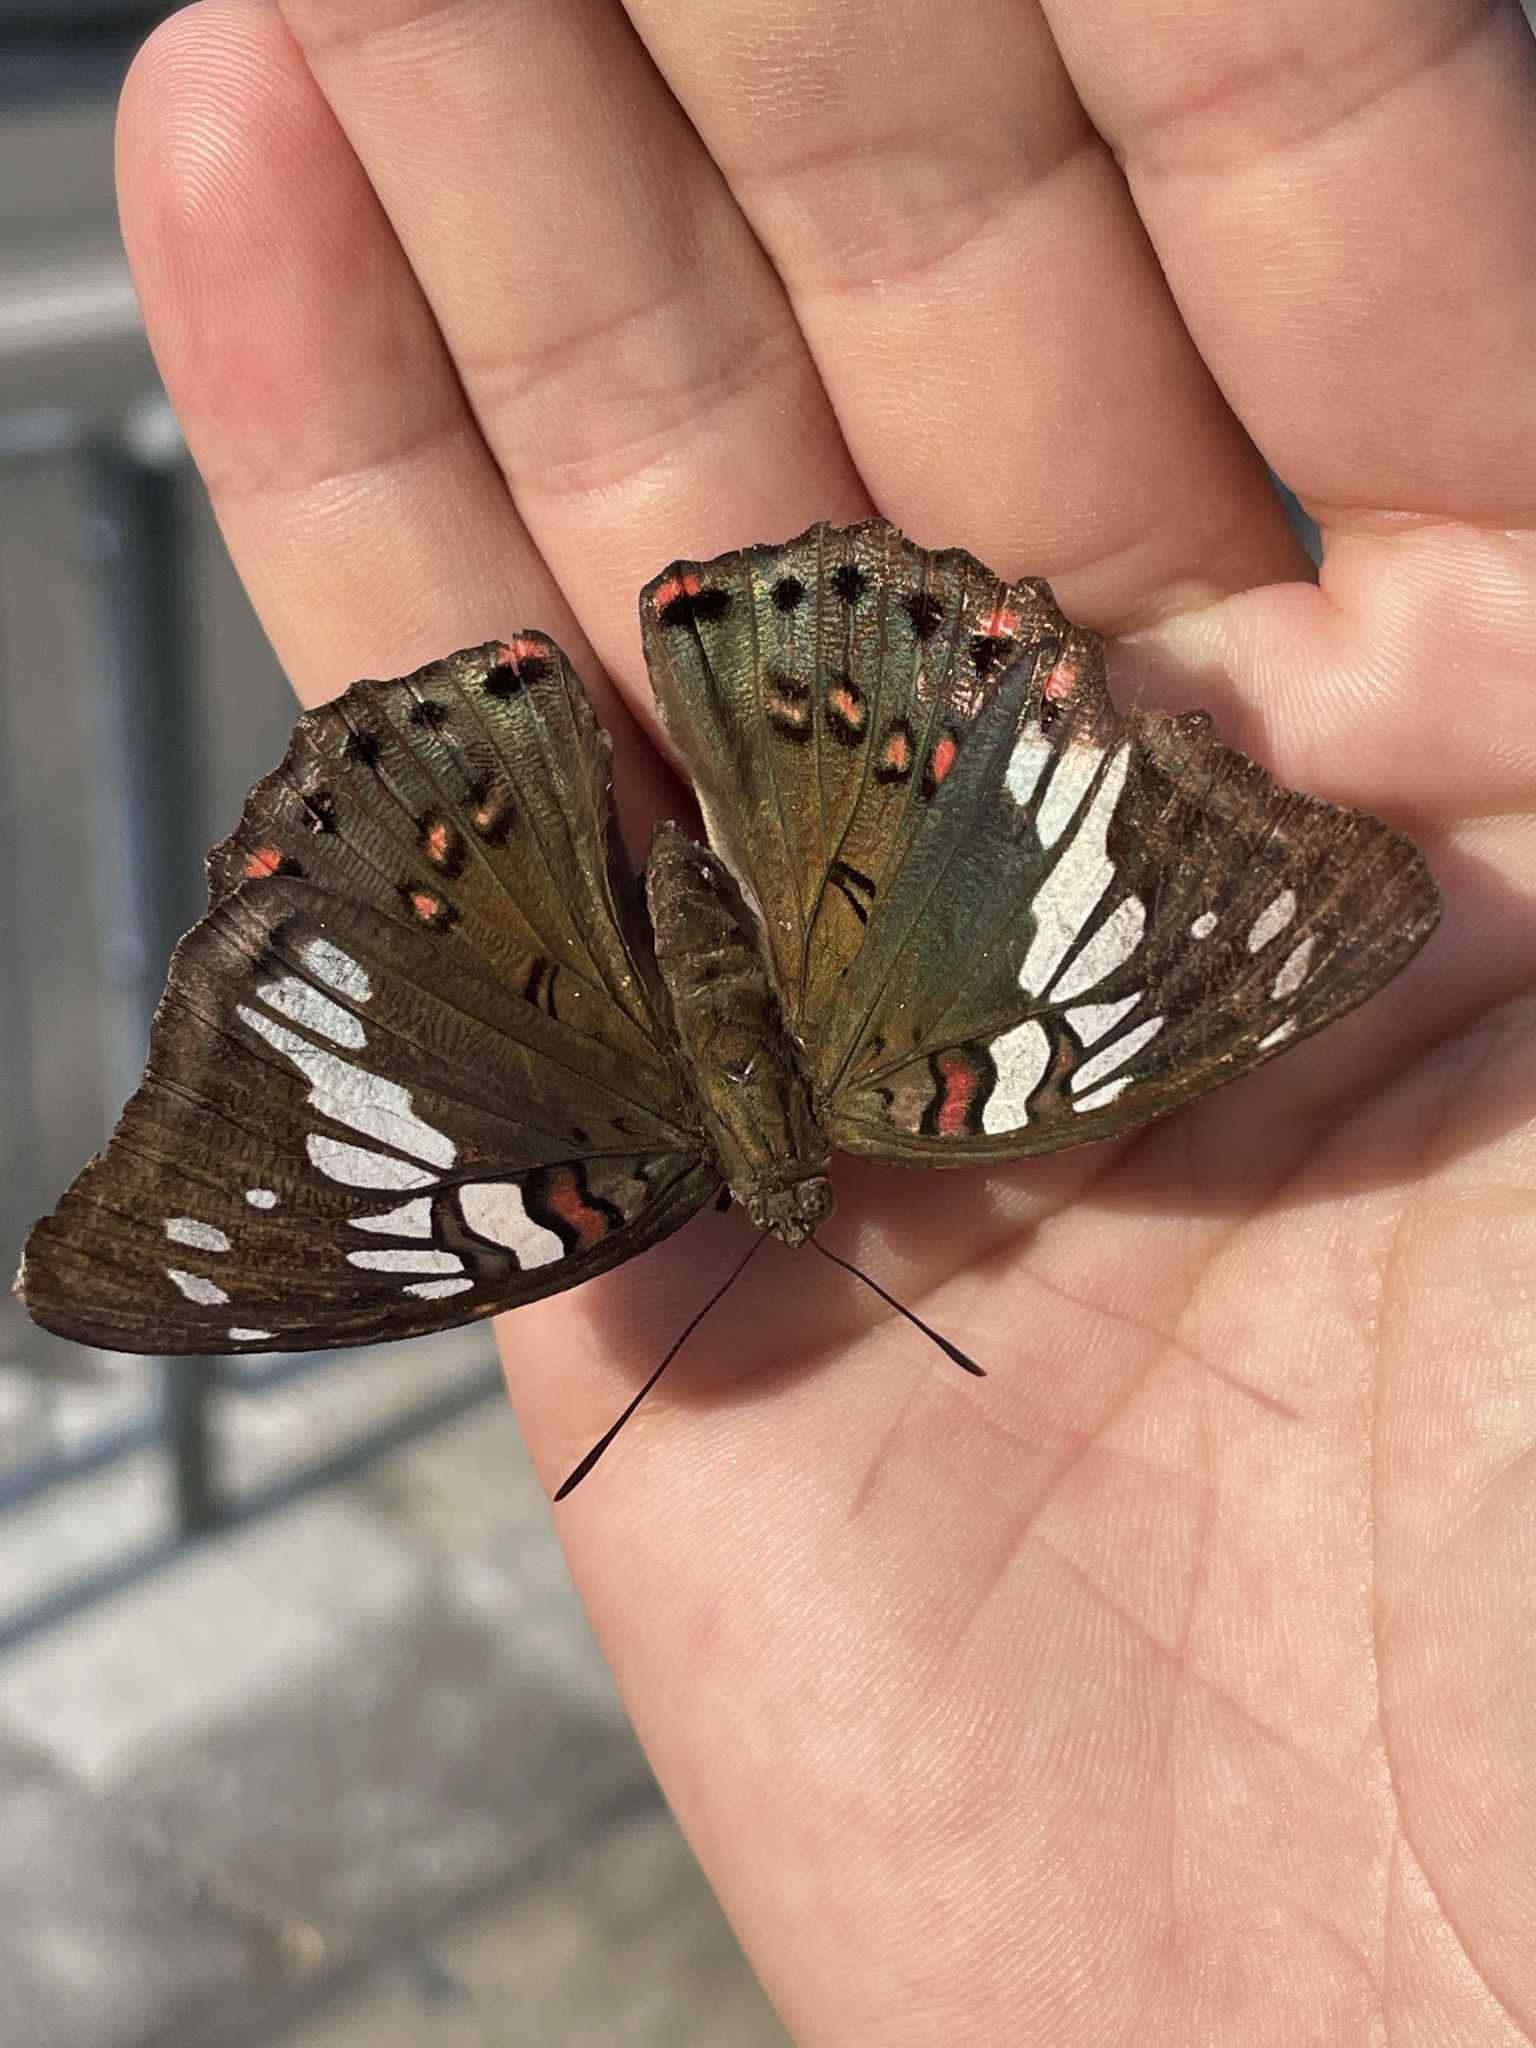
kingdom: Animalia
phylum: Arthropoda
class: Insecta
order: Lepidoptera
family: Nymphalidae
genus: Euthalia
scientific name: Euthalia lubentina
